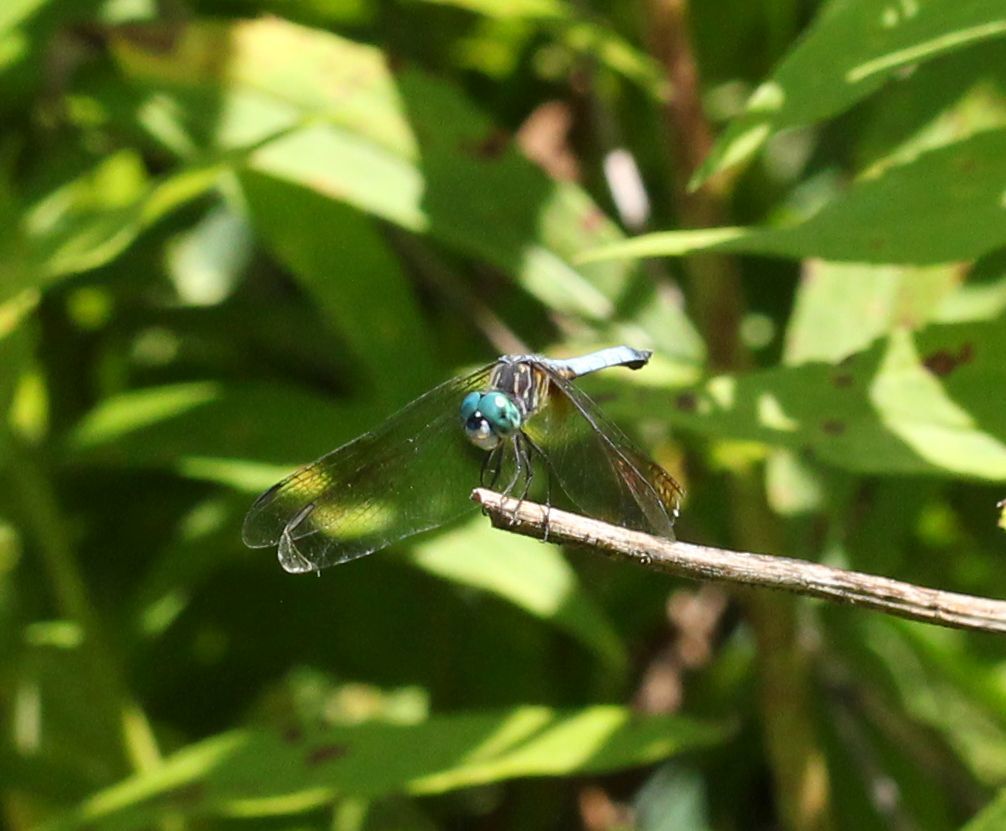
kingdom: Animalia
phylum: Arthropoda
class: Insecta
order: Odonata
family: Libellulidae
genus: Pachydiplax
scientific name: Pachydiplax longipennis
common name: Blue dasher
